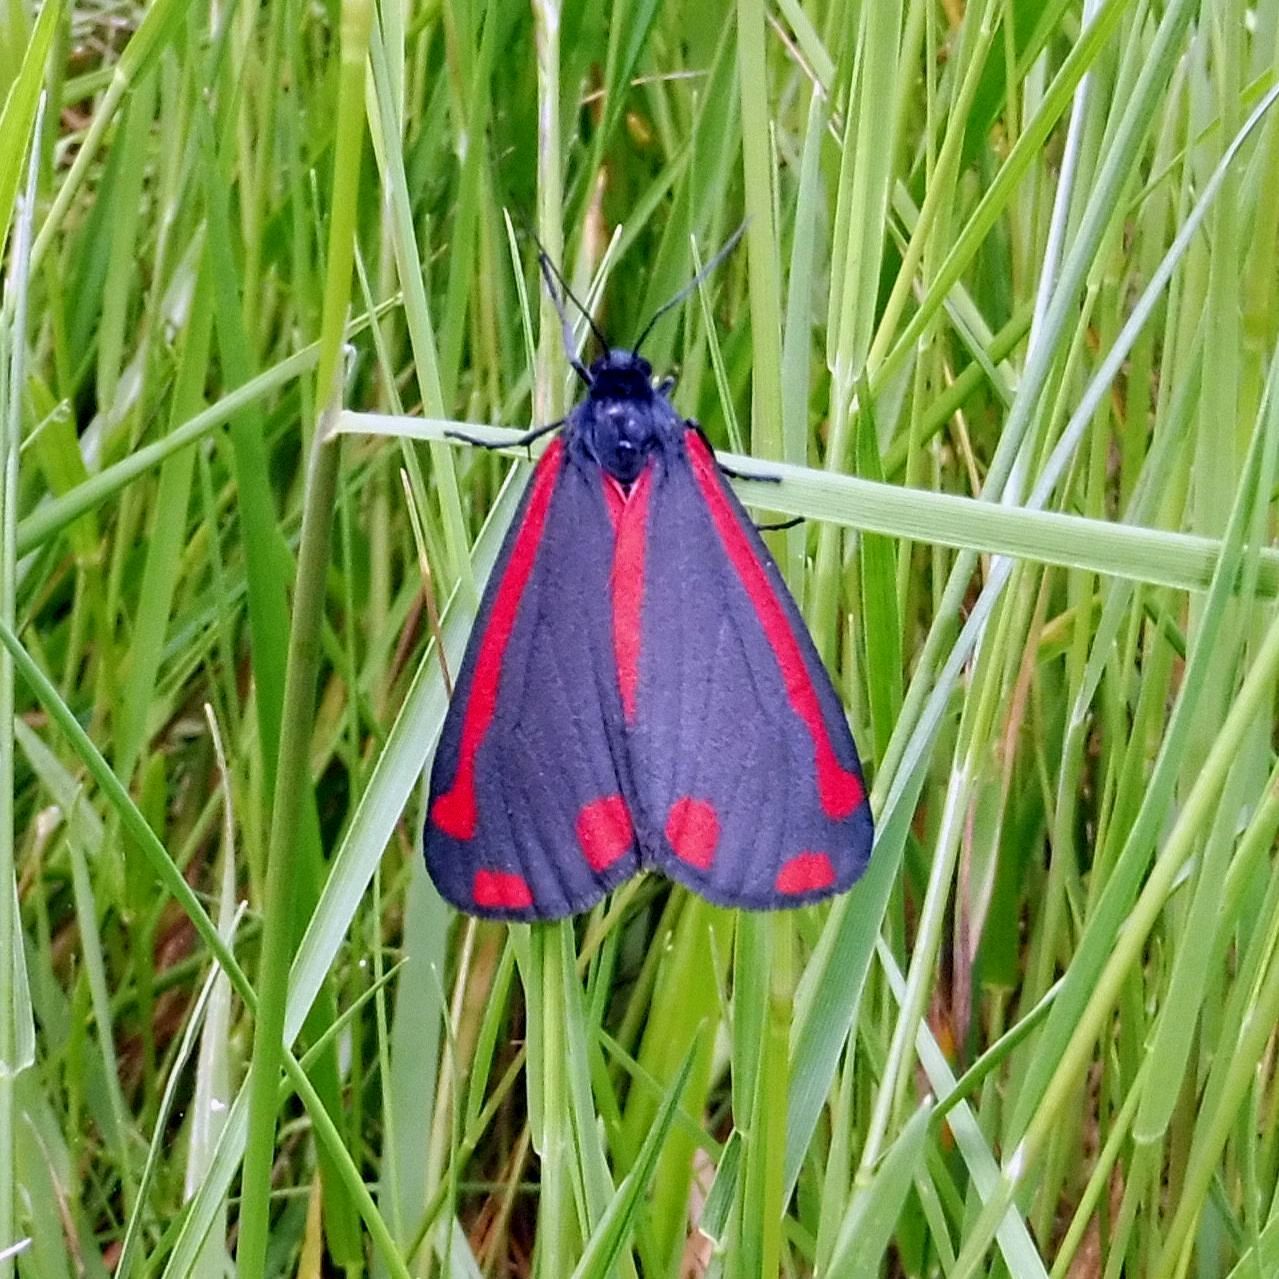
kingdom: Animalia
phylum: Arthropoda
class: Insecta
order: Lepidoptera
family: Erebidae
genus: Tyria
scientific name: Tyria jacobaeae
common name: Cinnabar
